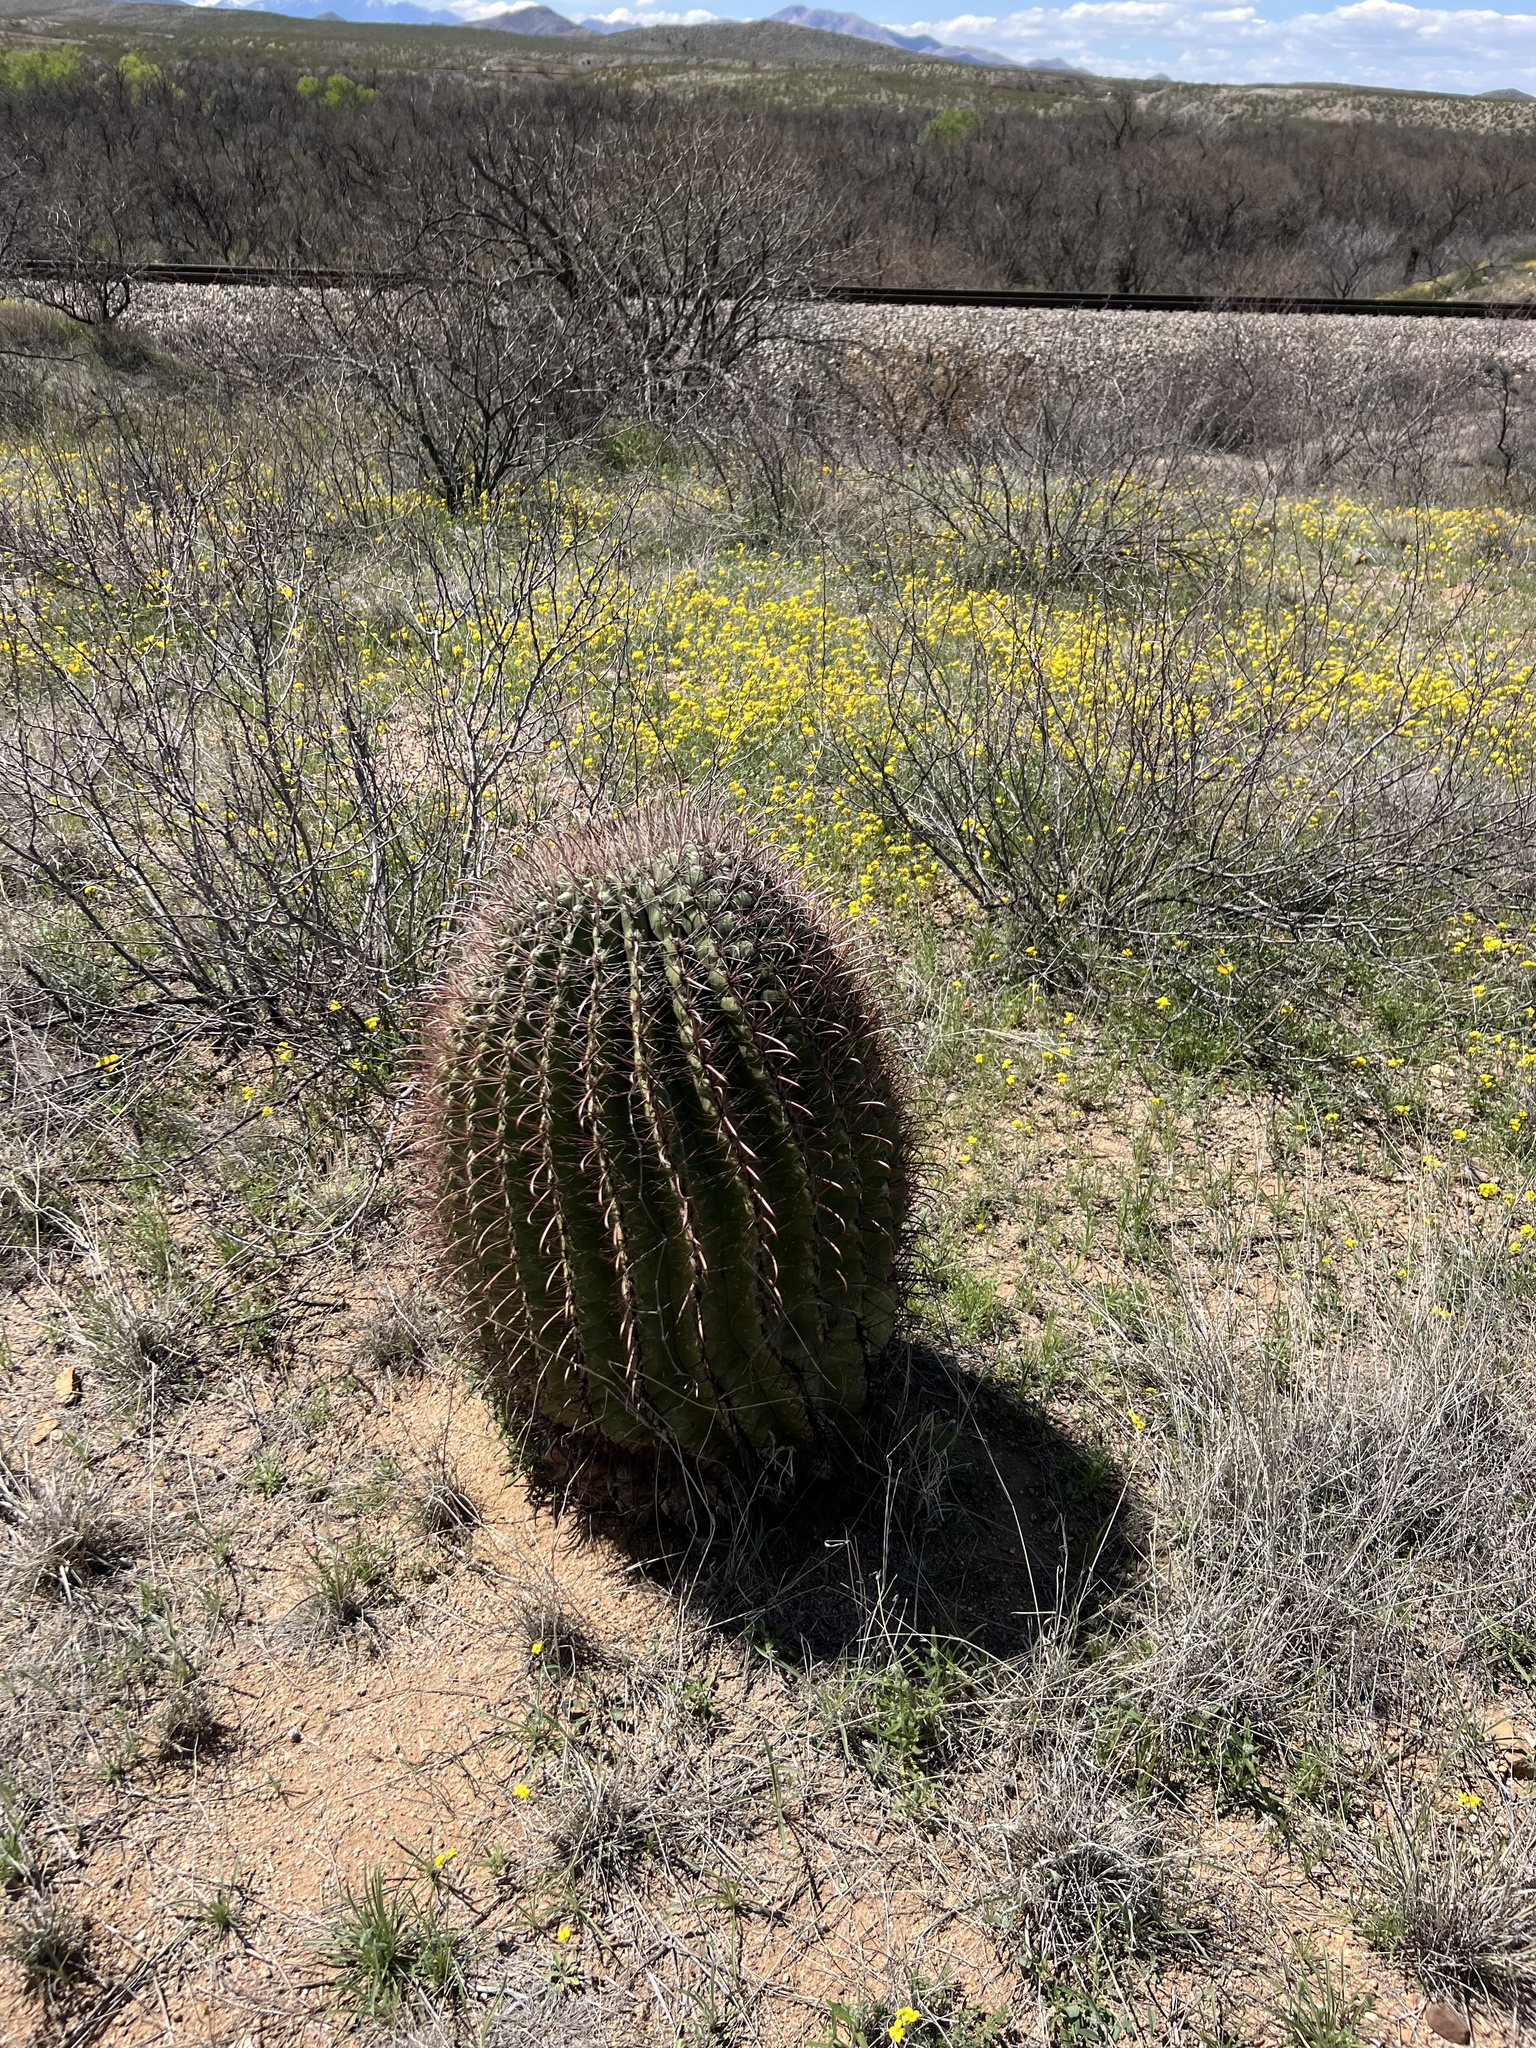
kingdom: Plantae
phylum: Tracheophyta
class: Magnoliopsida
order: Caryophyllales
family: Cactaceae
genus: Ferocactus
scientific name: Ferocactus wislizeni
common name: Candy barrel cactus
